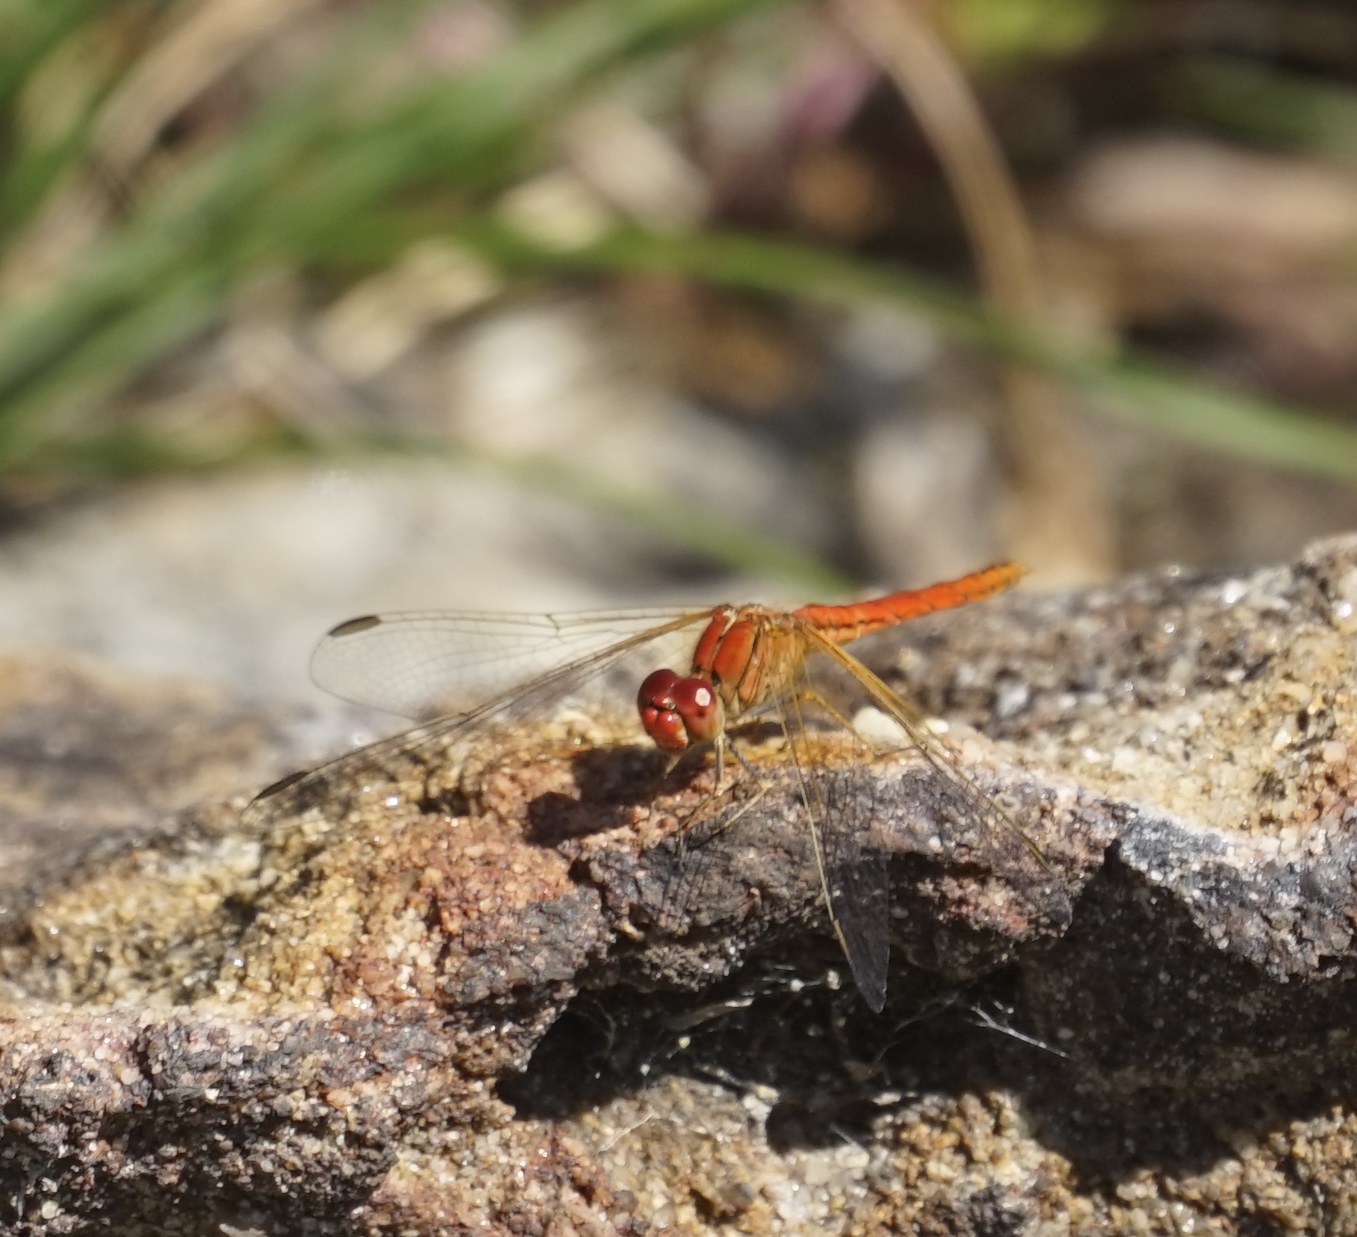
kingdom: Animalia
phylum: Arthropoda
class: Insecta
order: Odonata
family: Libellulidae
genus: Diplacodes
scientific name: Diplacodes haematodes
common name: Scarlet percher
